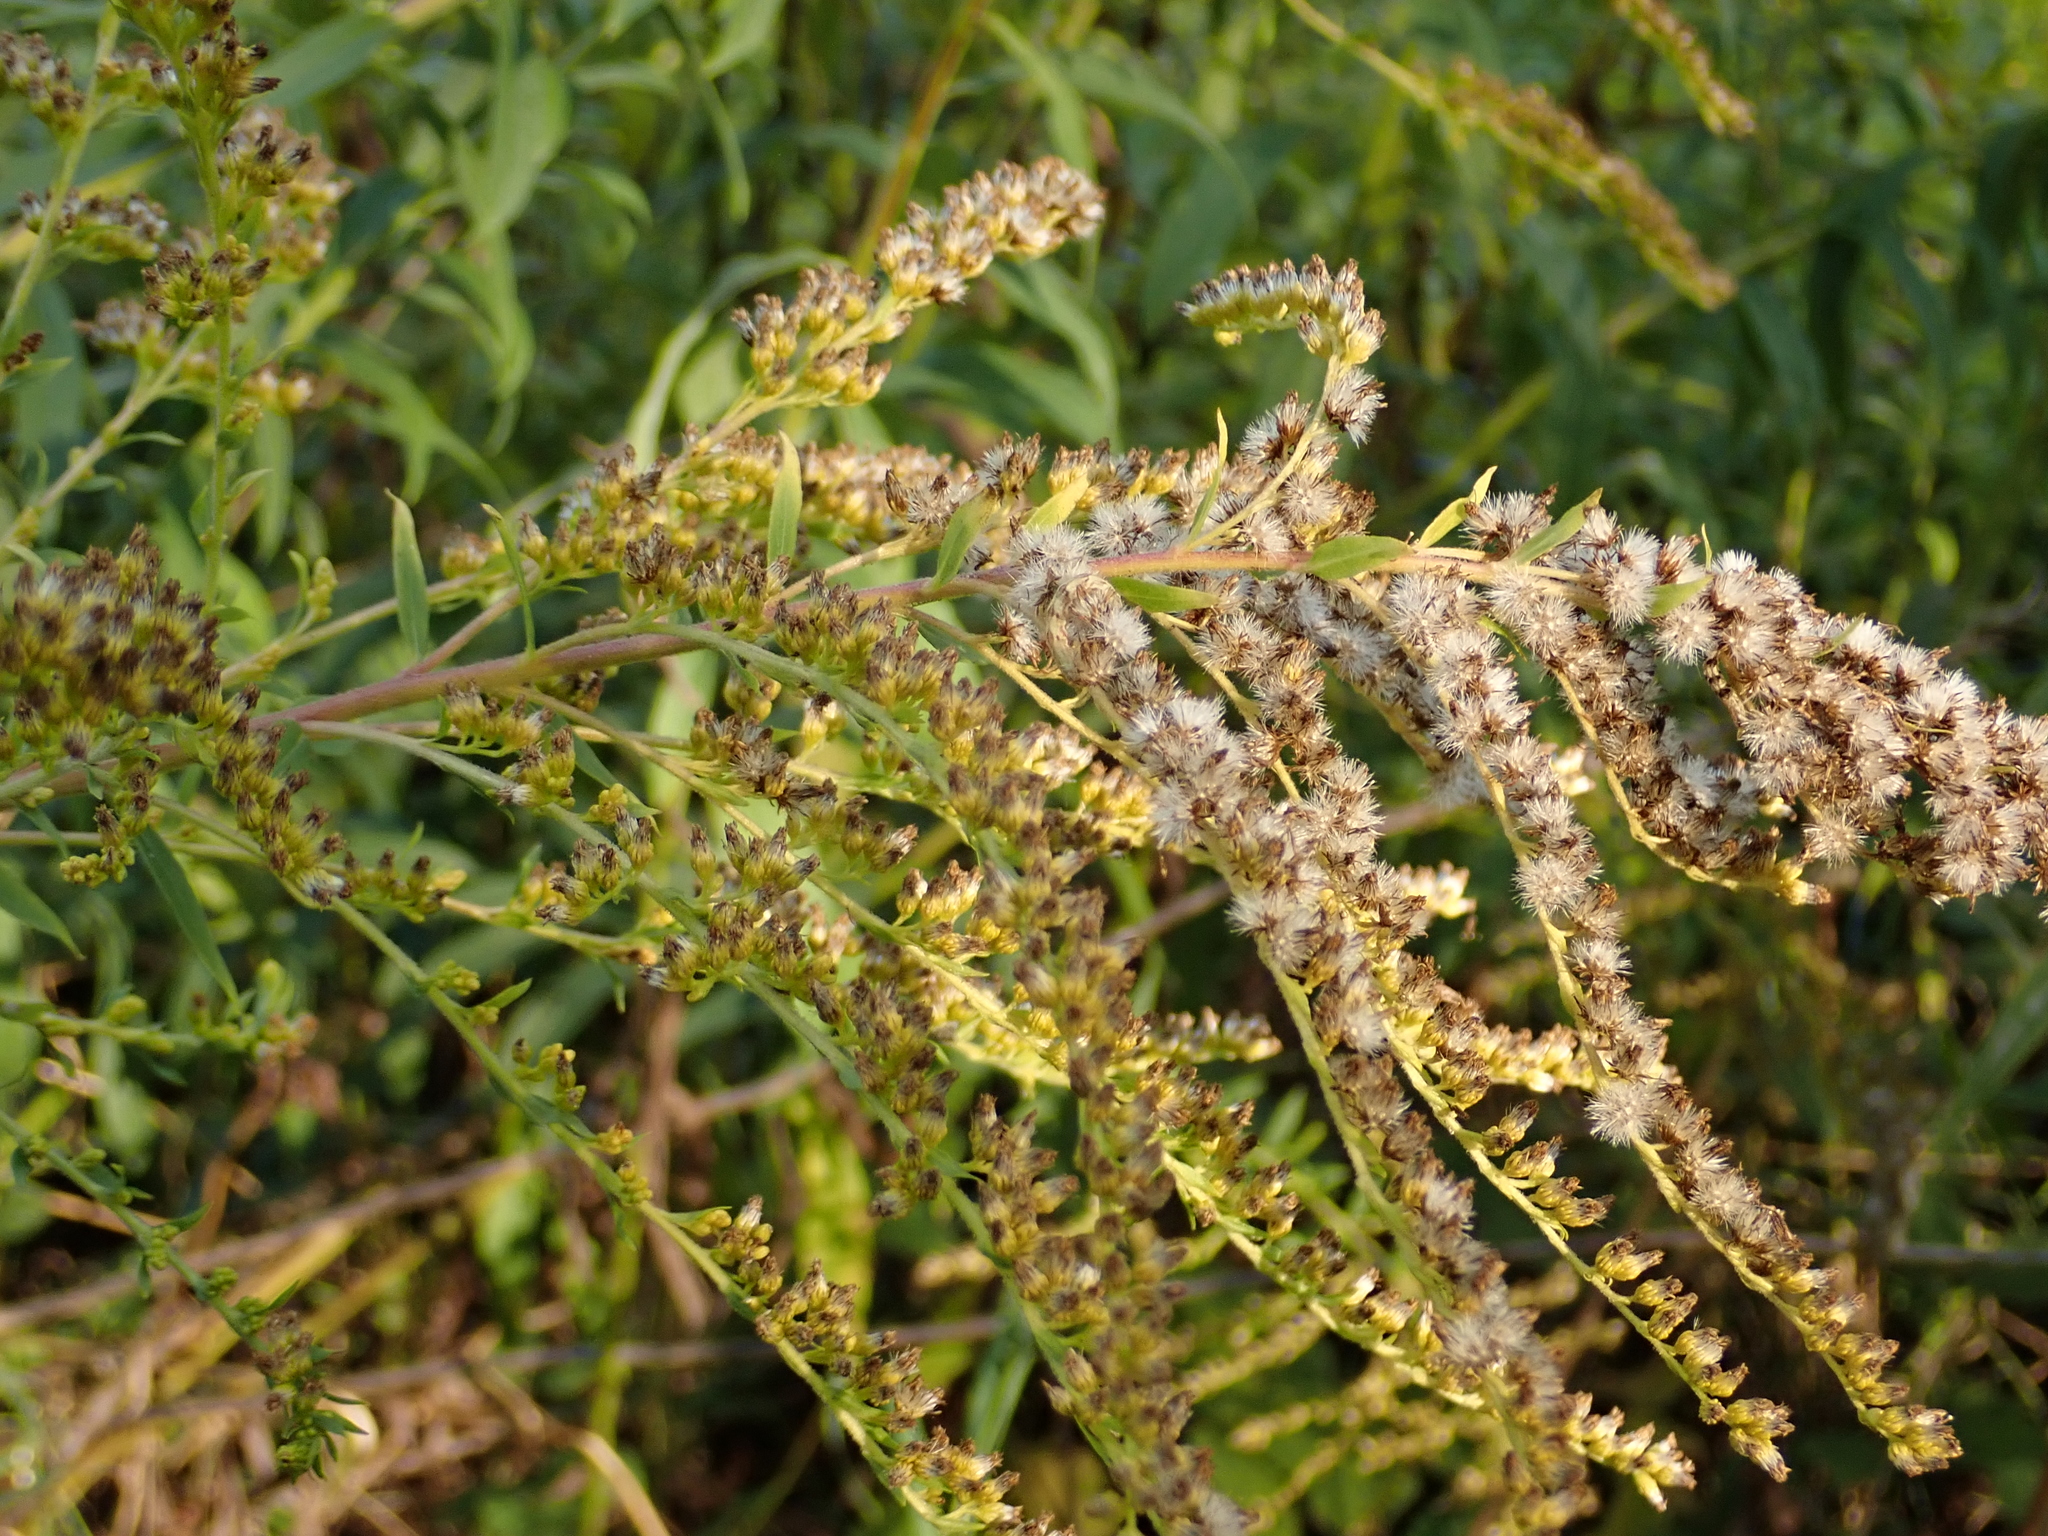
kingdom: Plantae
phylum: Tracheophyta
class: Magnoliopsida
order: Asterales
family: Asteraceae
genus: Solidago
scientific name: Solidago canadensis
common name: Canada goldenrod
